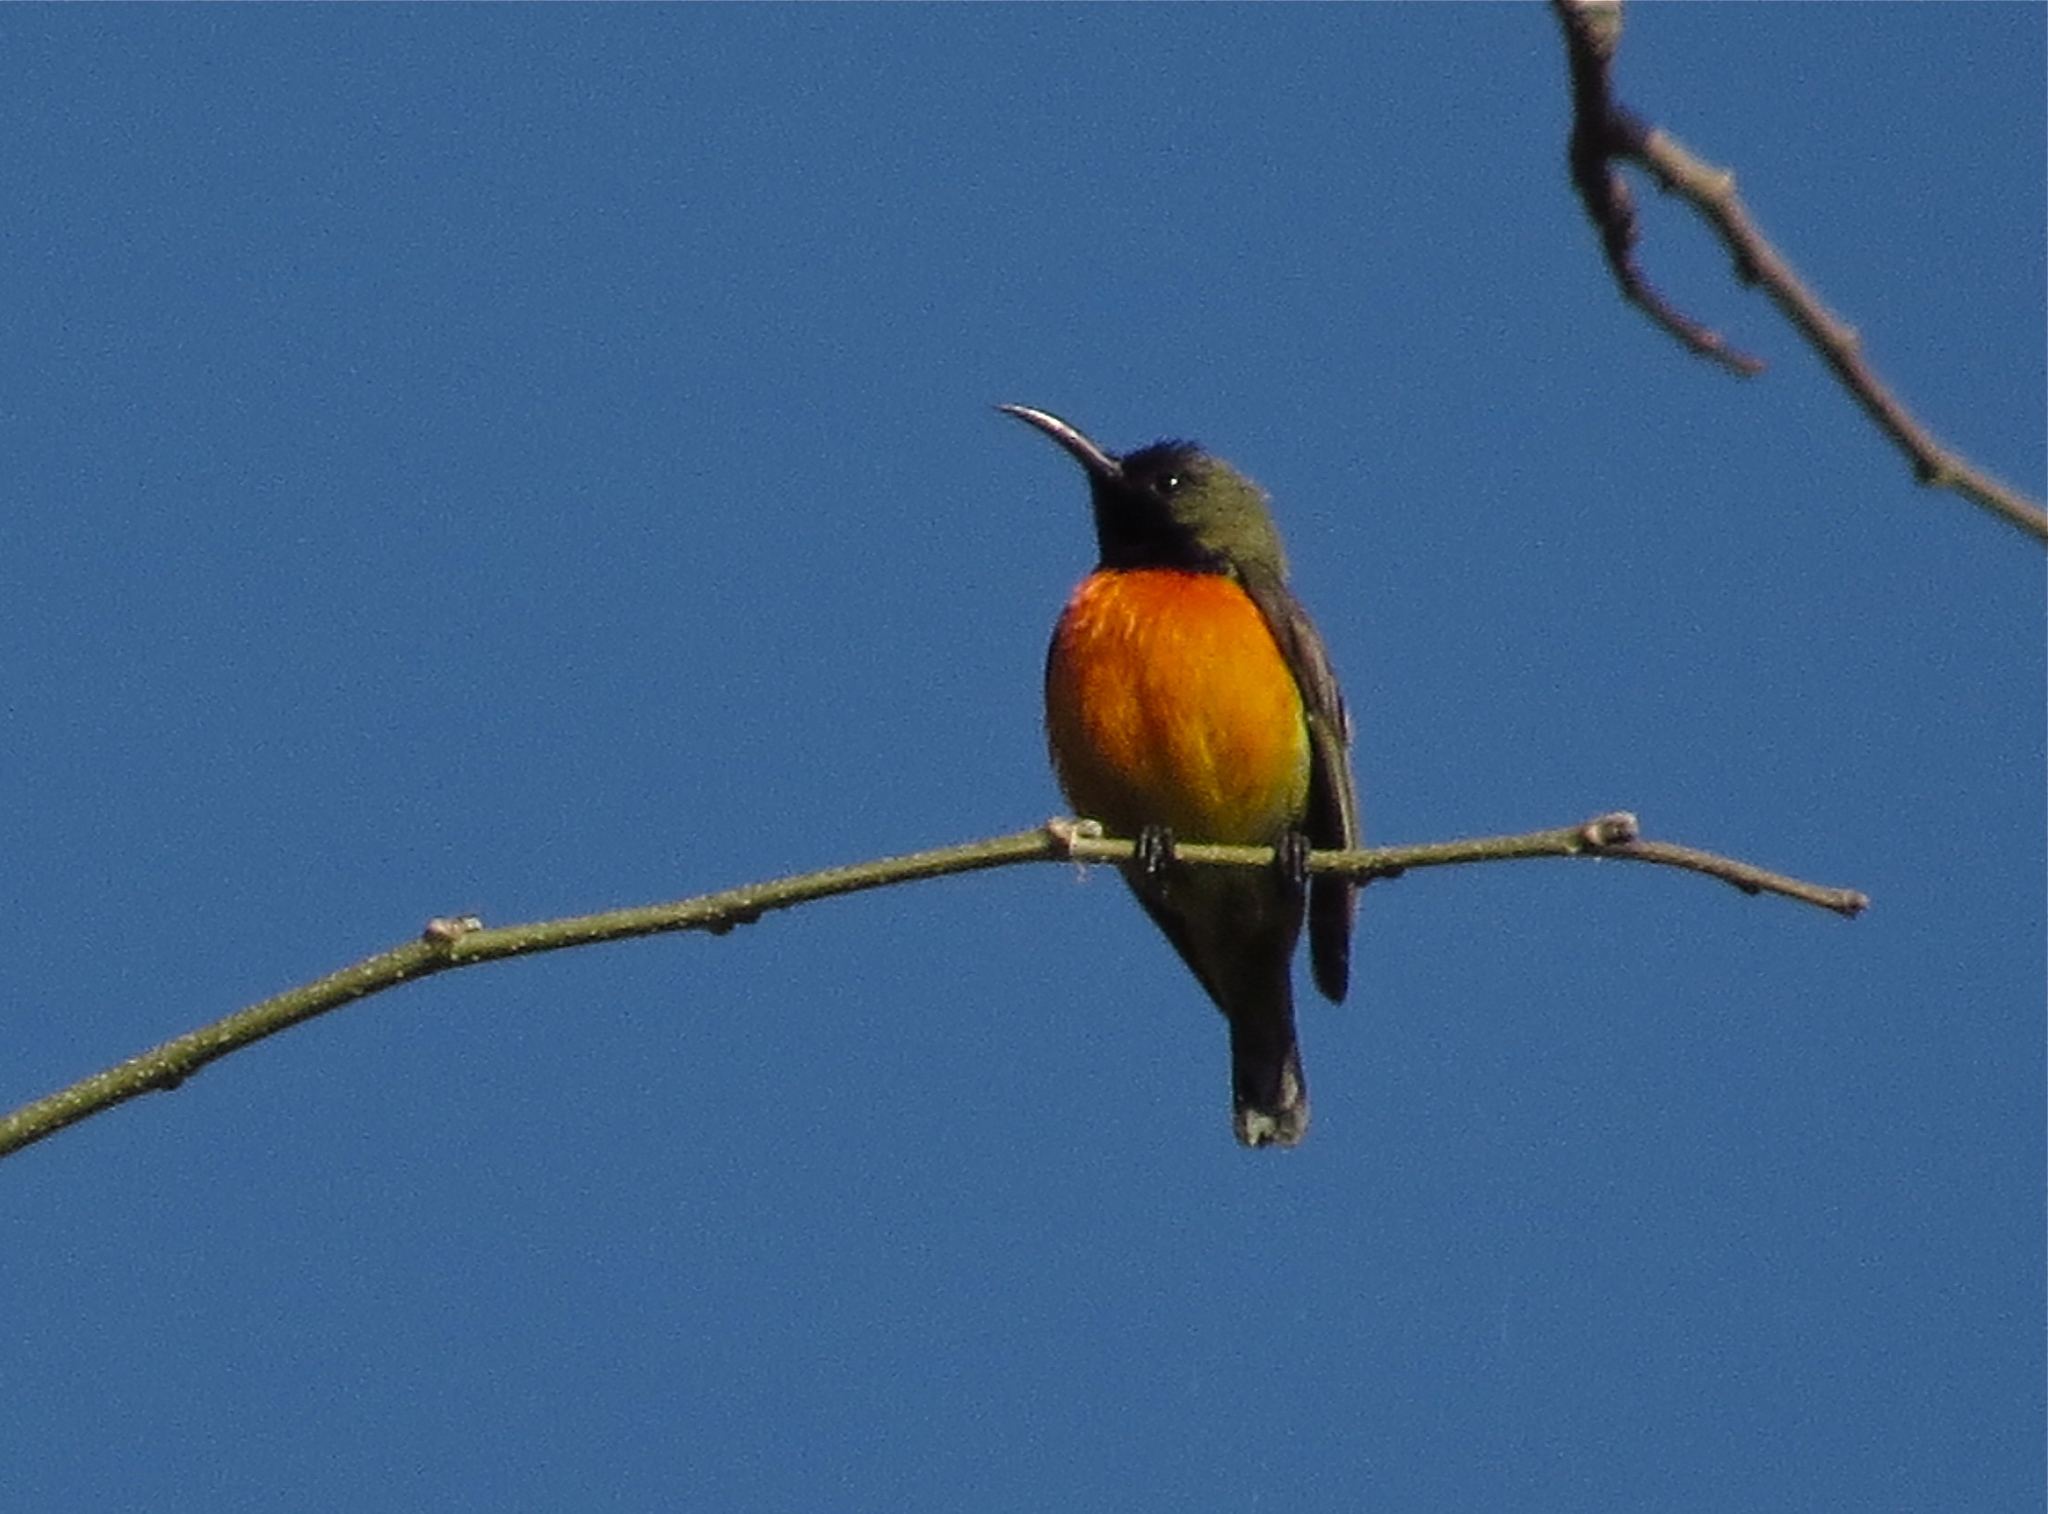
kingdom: Animalia
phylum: Chordata
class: Aves
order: Passeriformes
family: Nectariniidae
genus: Cinnyris
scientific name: Cinnyris solaris
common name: Flame-breasted sunbird
